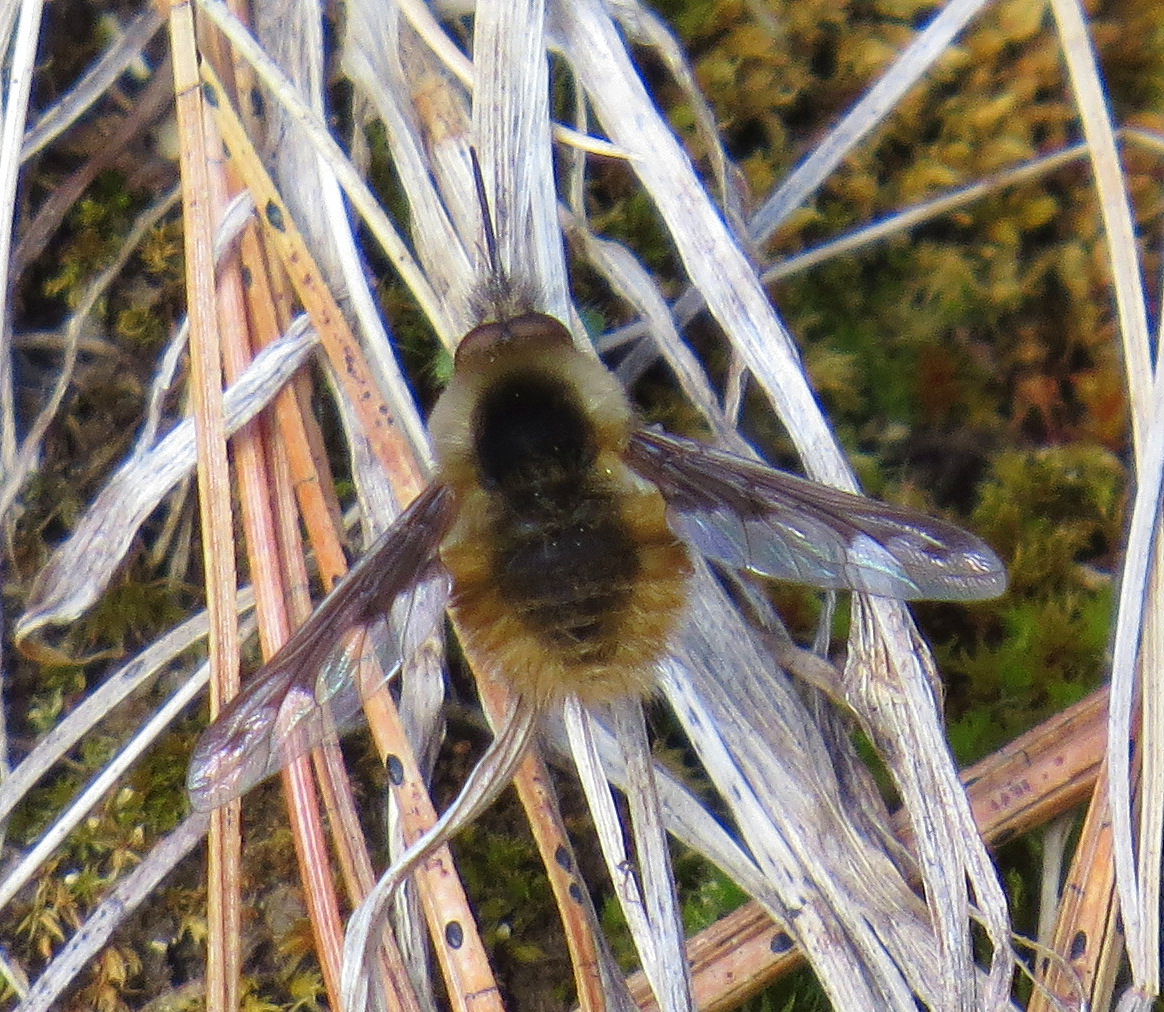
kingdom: Animalia
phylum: Arthropoda
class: Insecta
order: Diptera
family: Bombyliidae
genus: Bombylius
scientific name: Bombylius major
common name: Bee fly
